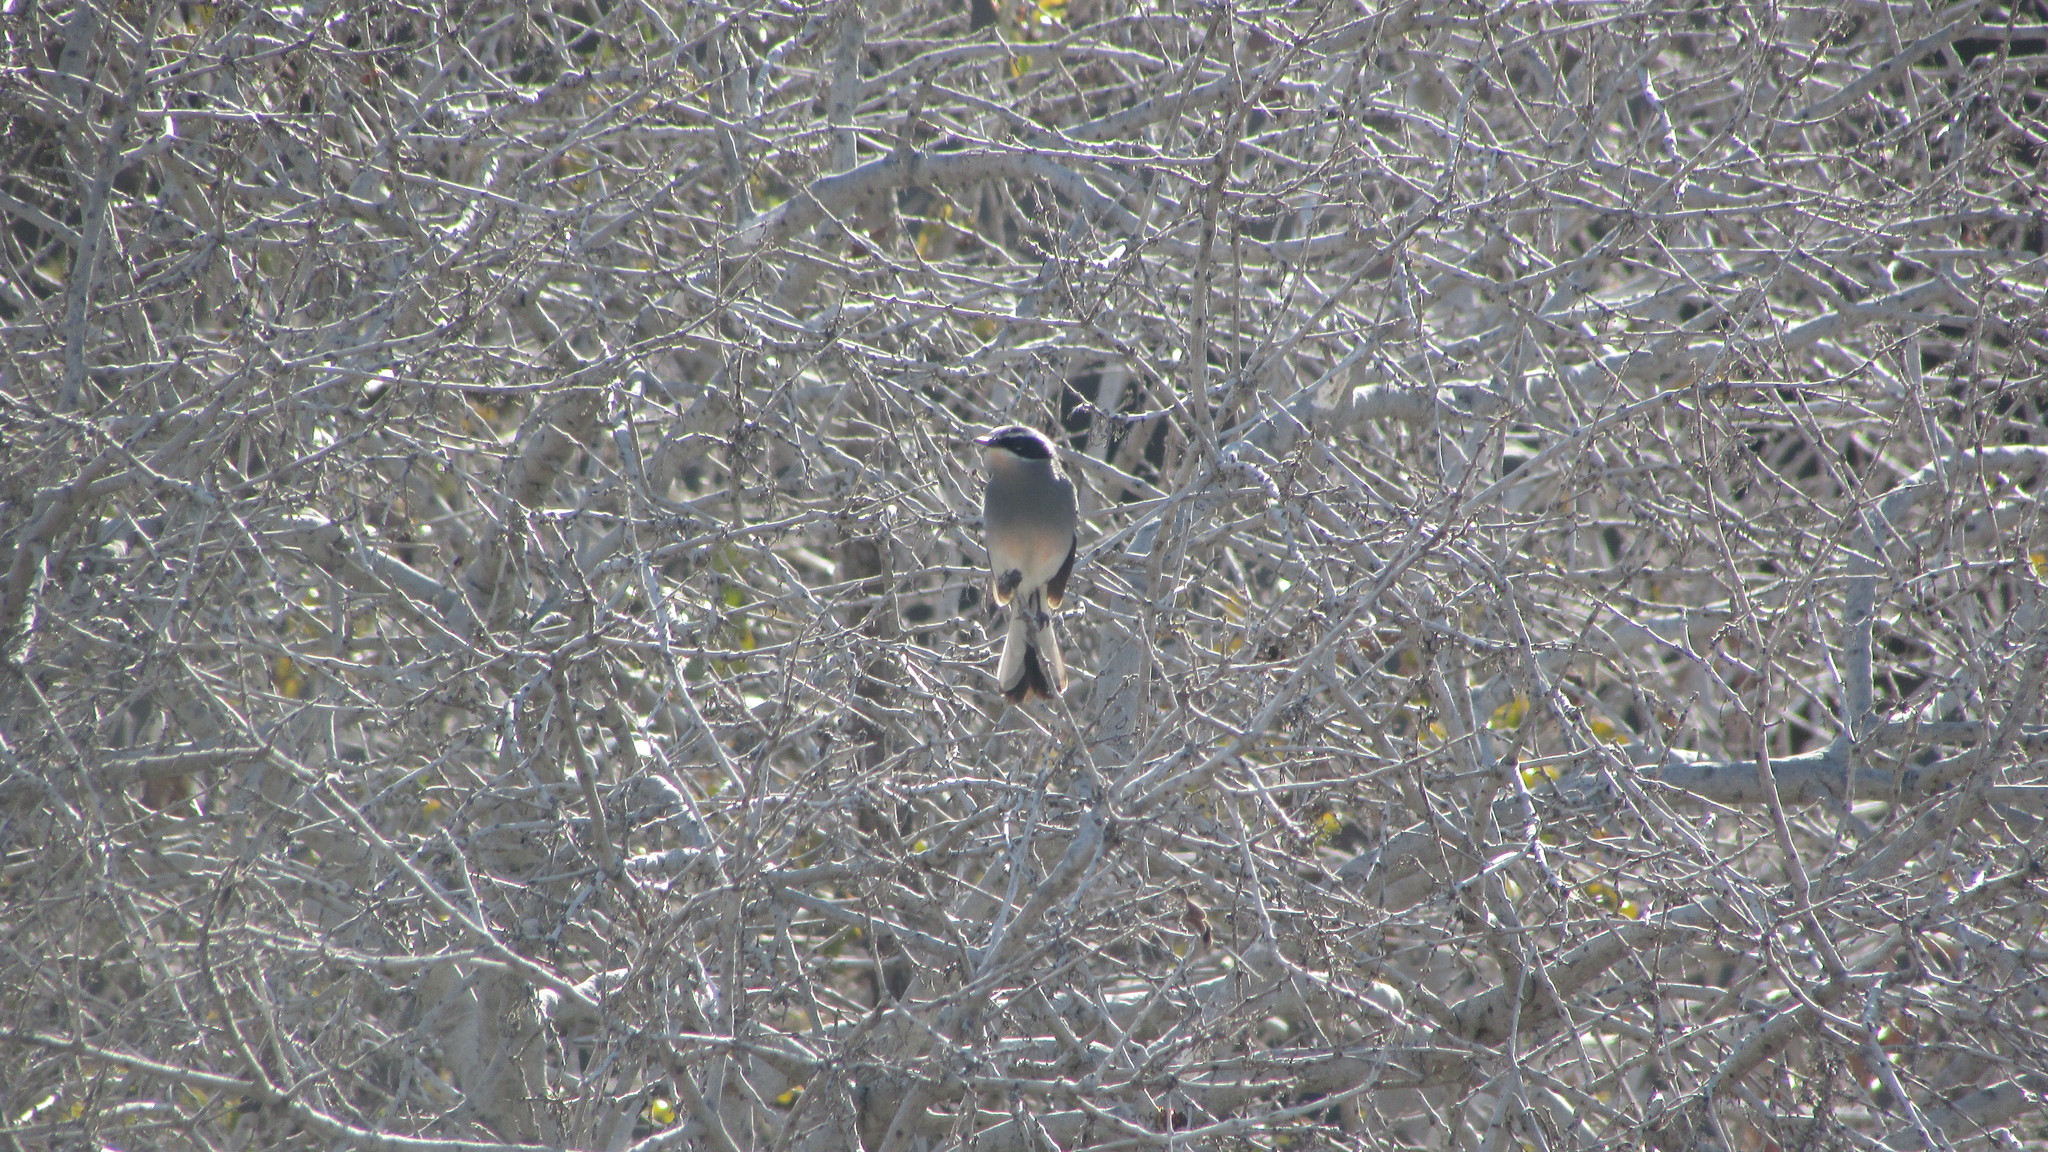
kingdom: Animalia
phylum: Chordata
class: Aves
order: Passeriformes
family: Stenostiridae
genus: Stenostira
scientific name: Stenostira scita
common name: Fairy flycatcher
